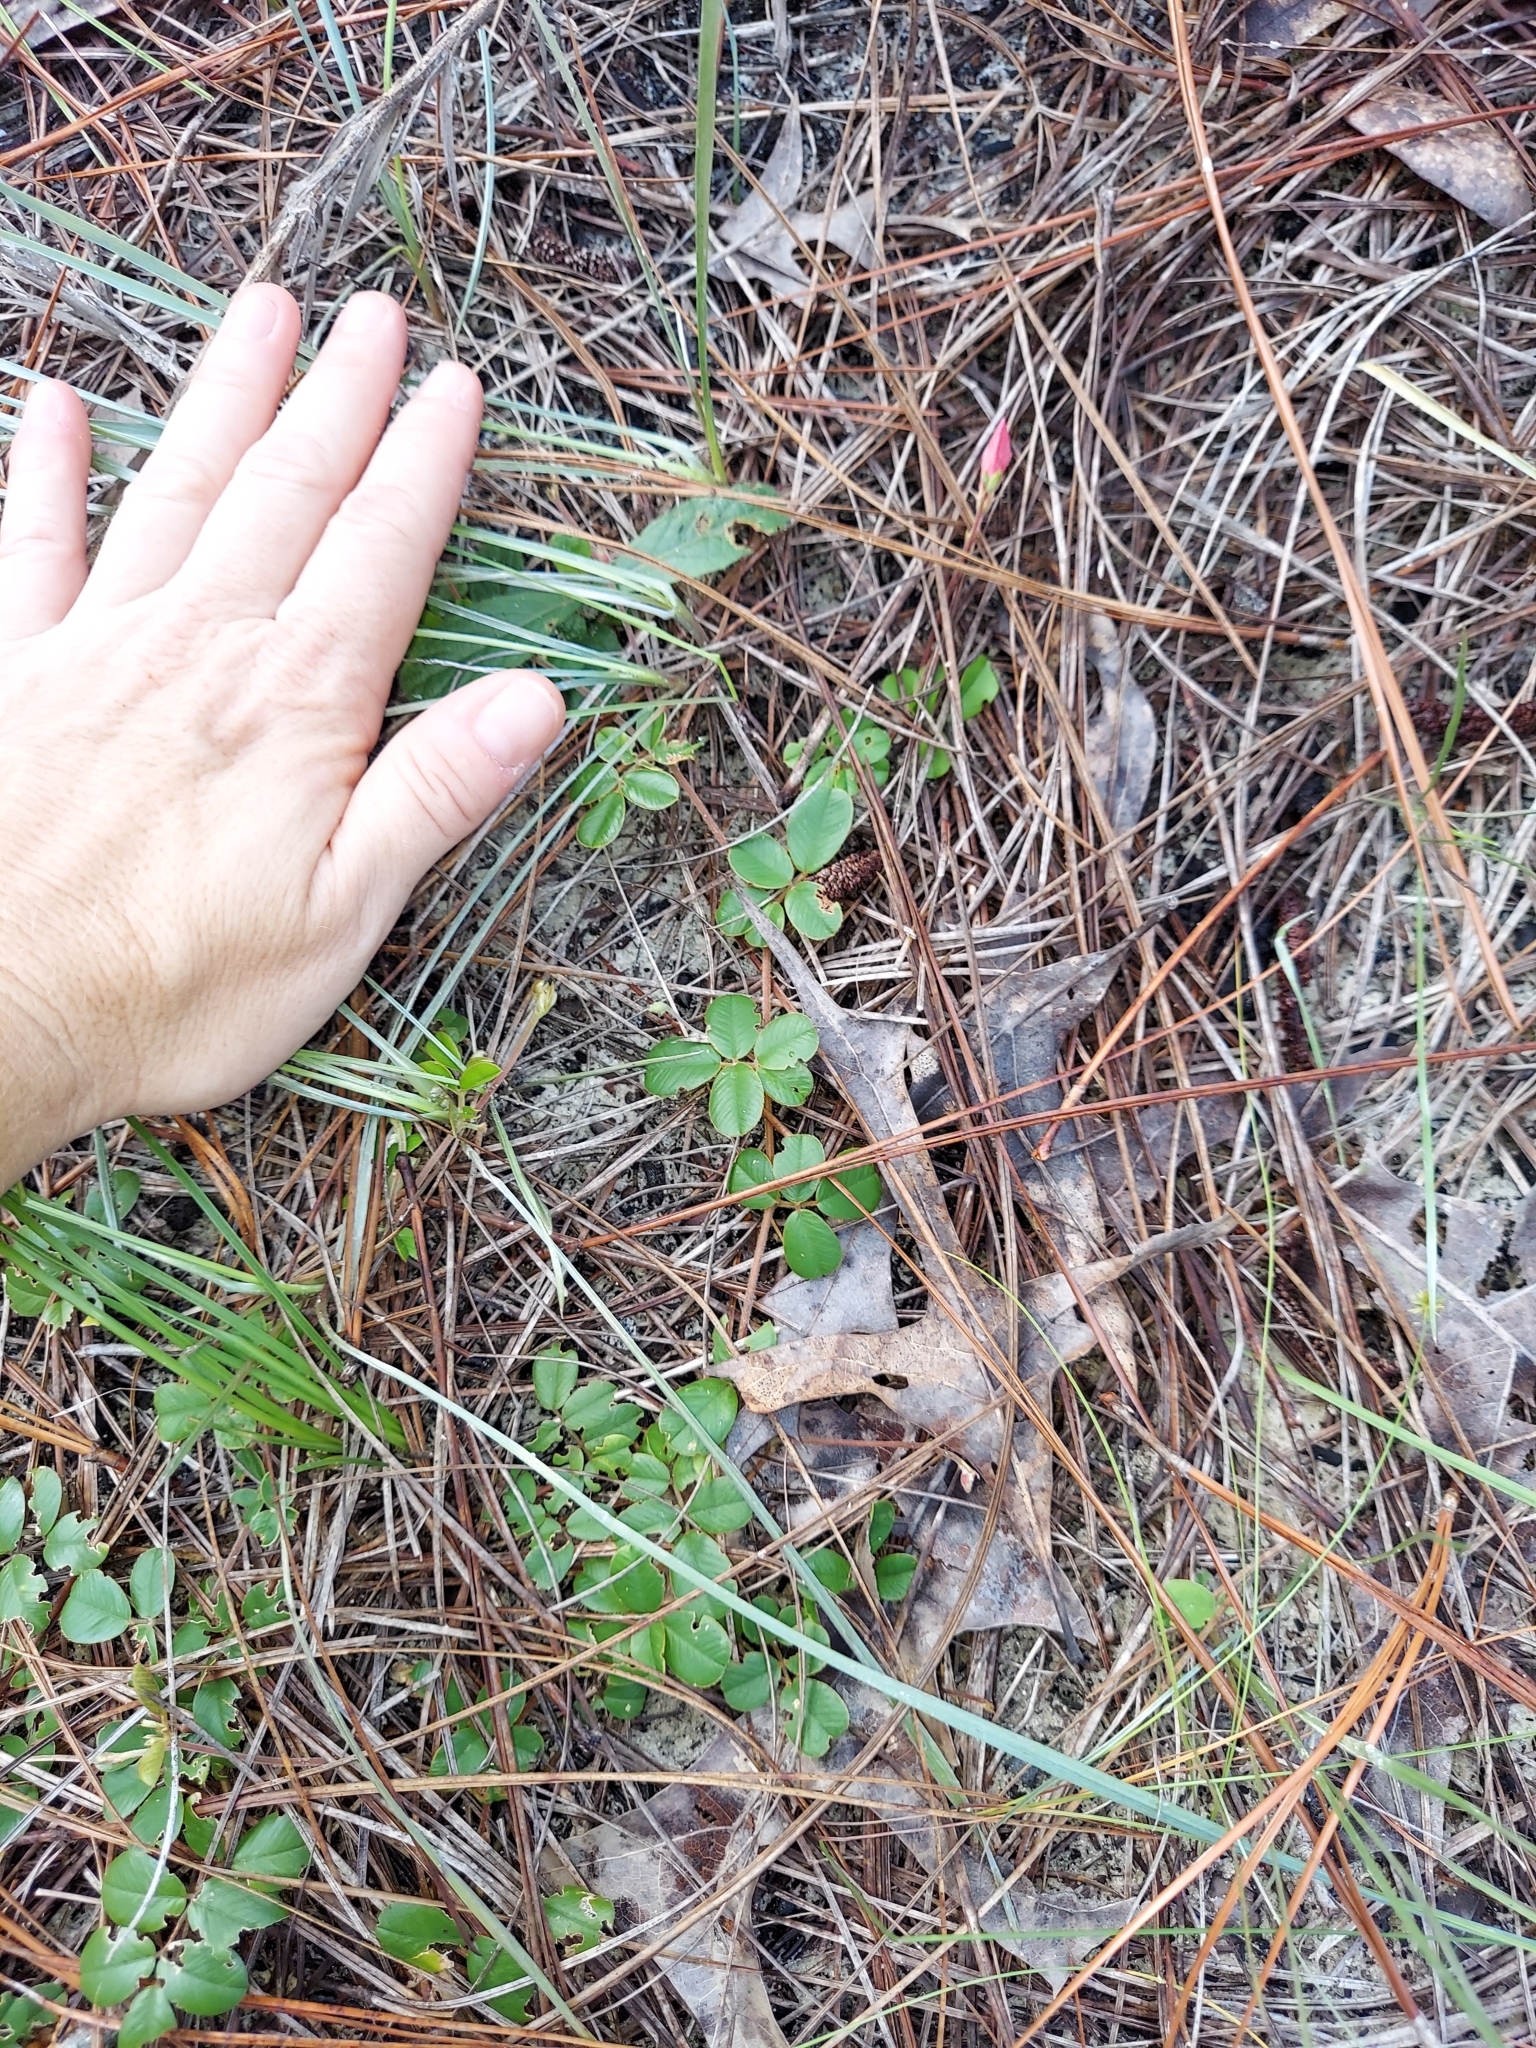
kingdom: Plantae
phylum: Tracheophyta
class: Magnoliopsida
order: Fabales
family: Fabaceae
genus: Tephrosia
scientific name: Tephrosia chrysophylla
